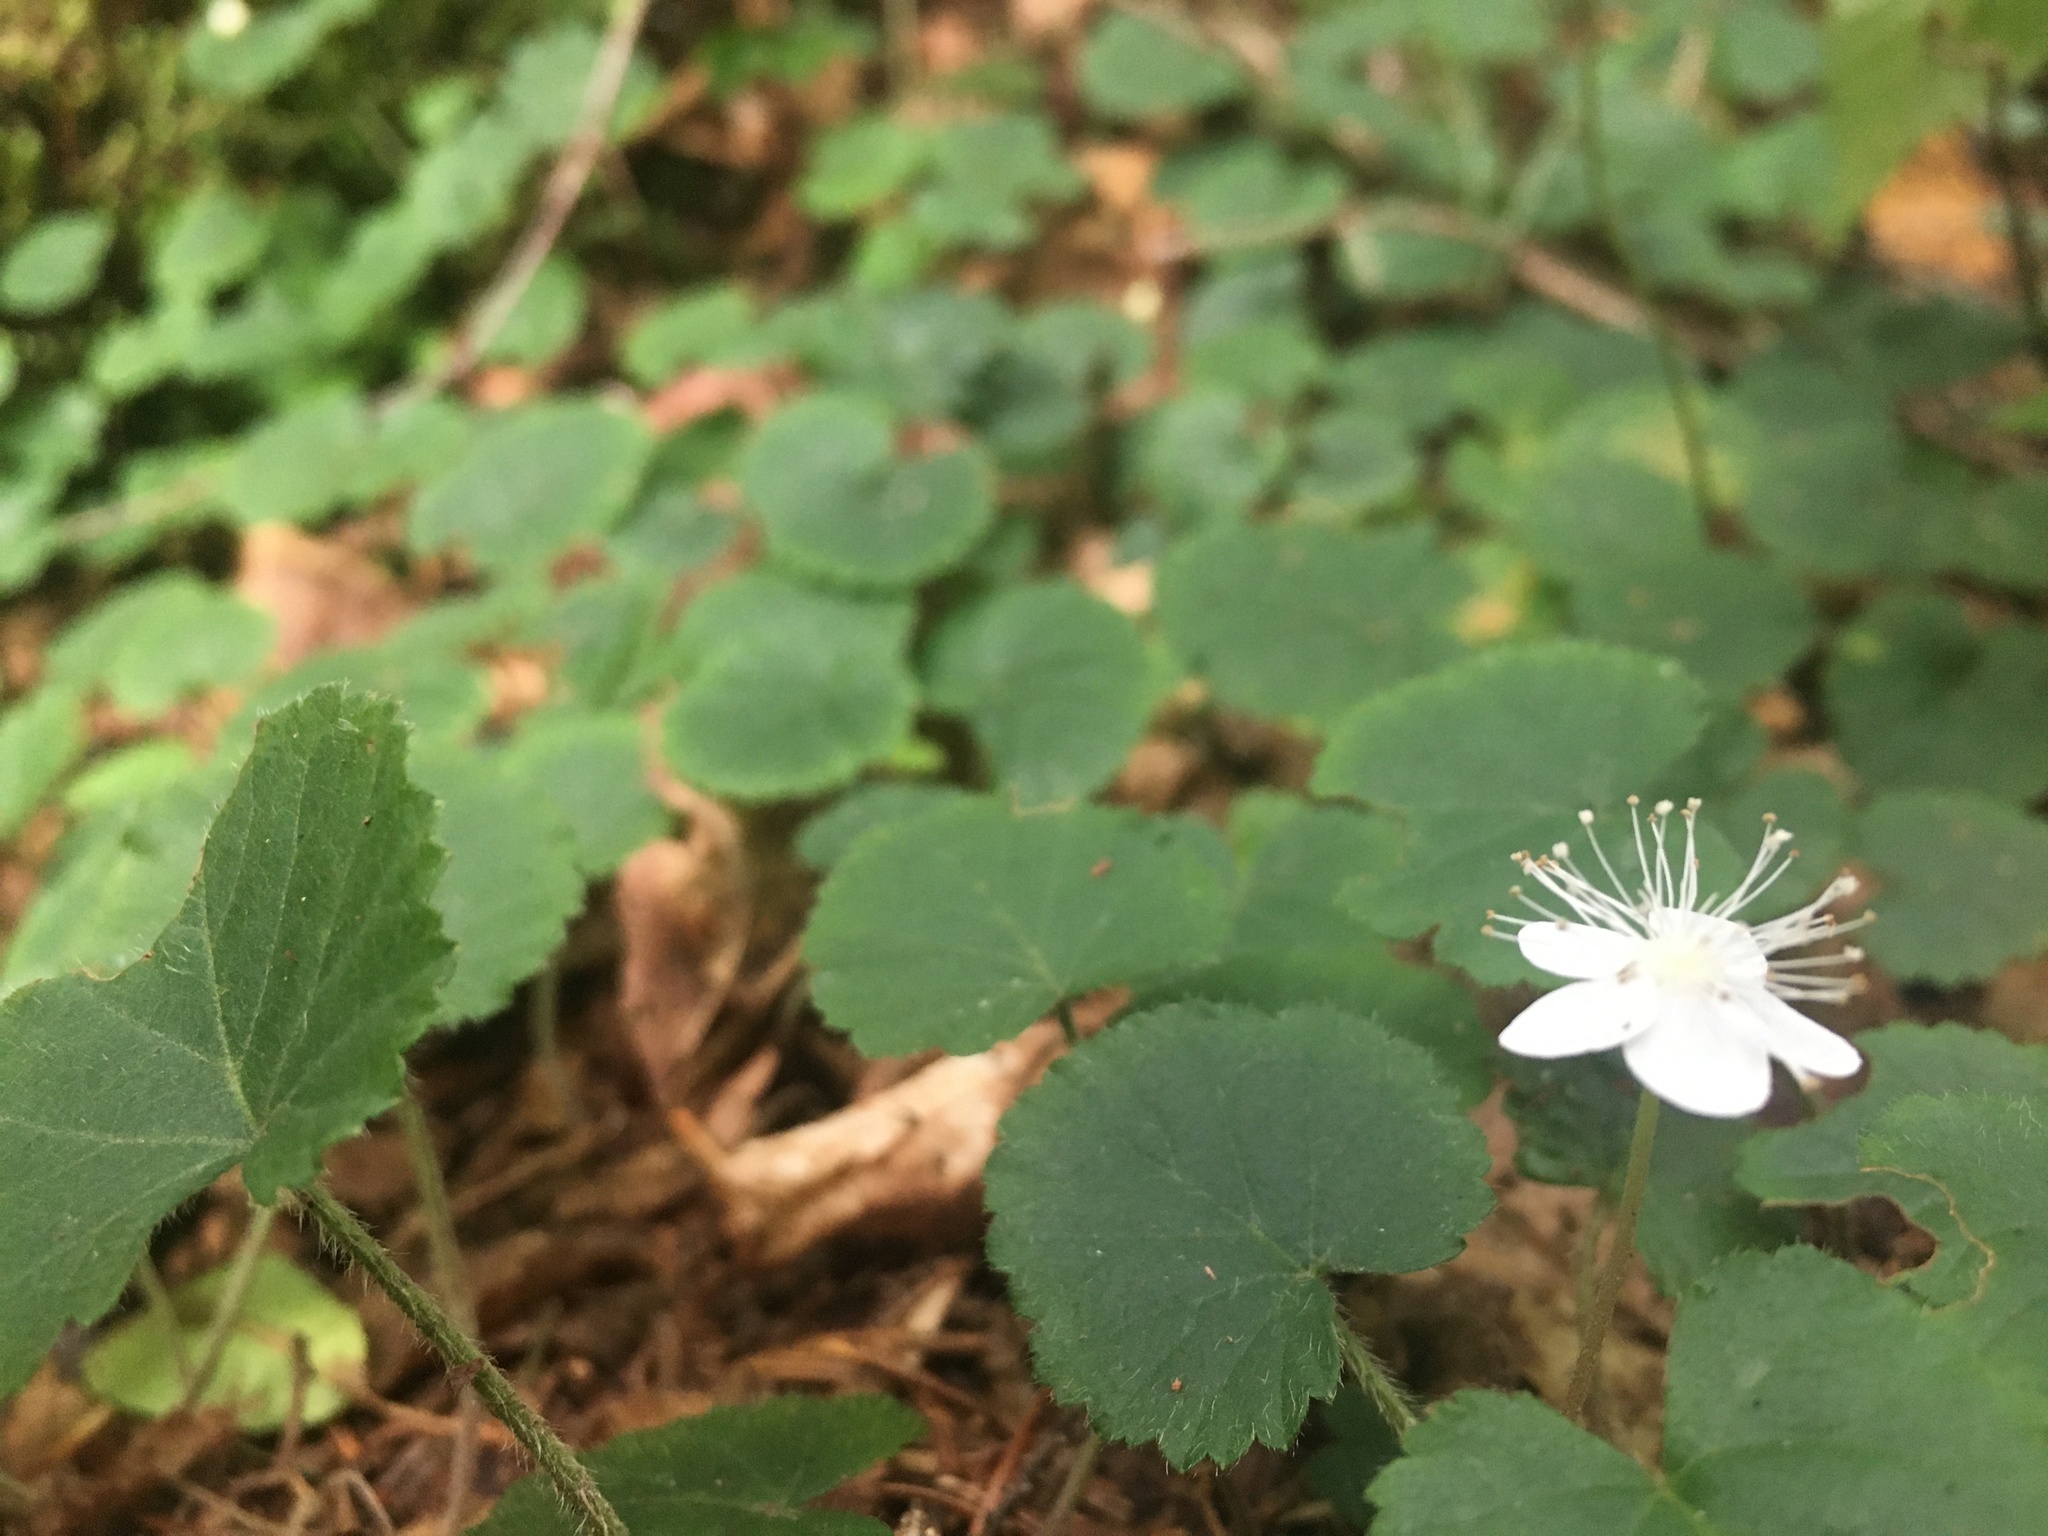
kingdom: Plantae
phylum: Tracheophyta
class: Magnoliopsida
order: Rosales
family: Rosaceae
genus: Dalibarda
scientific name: Dalibarda repens
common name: Dewdrop
